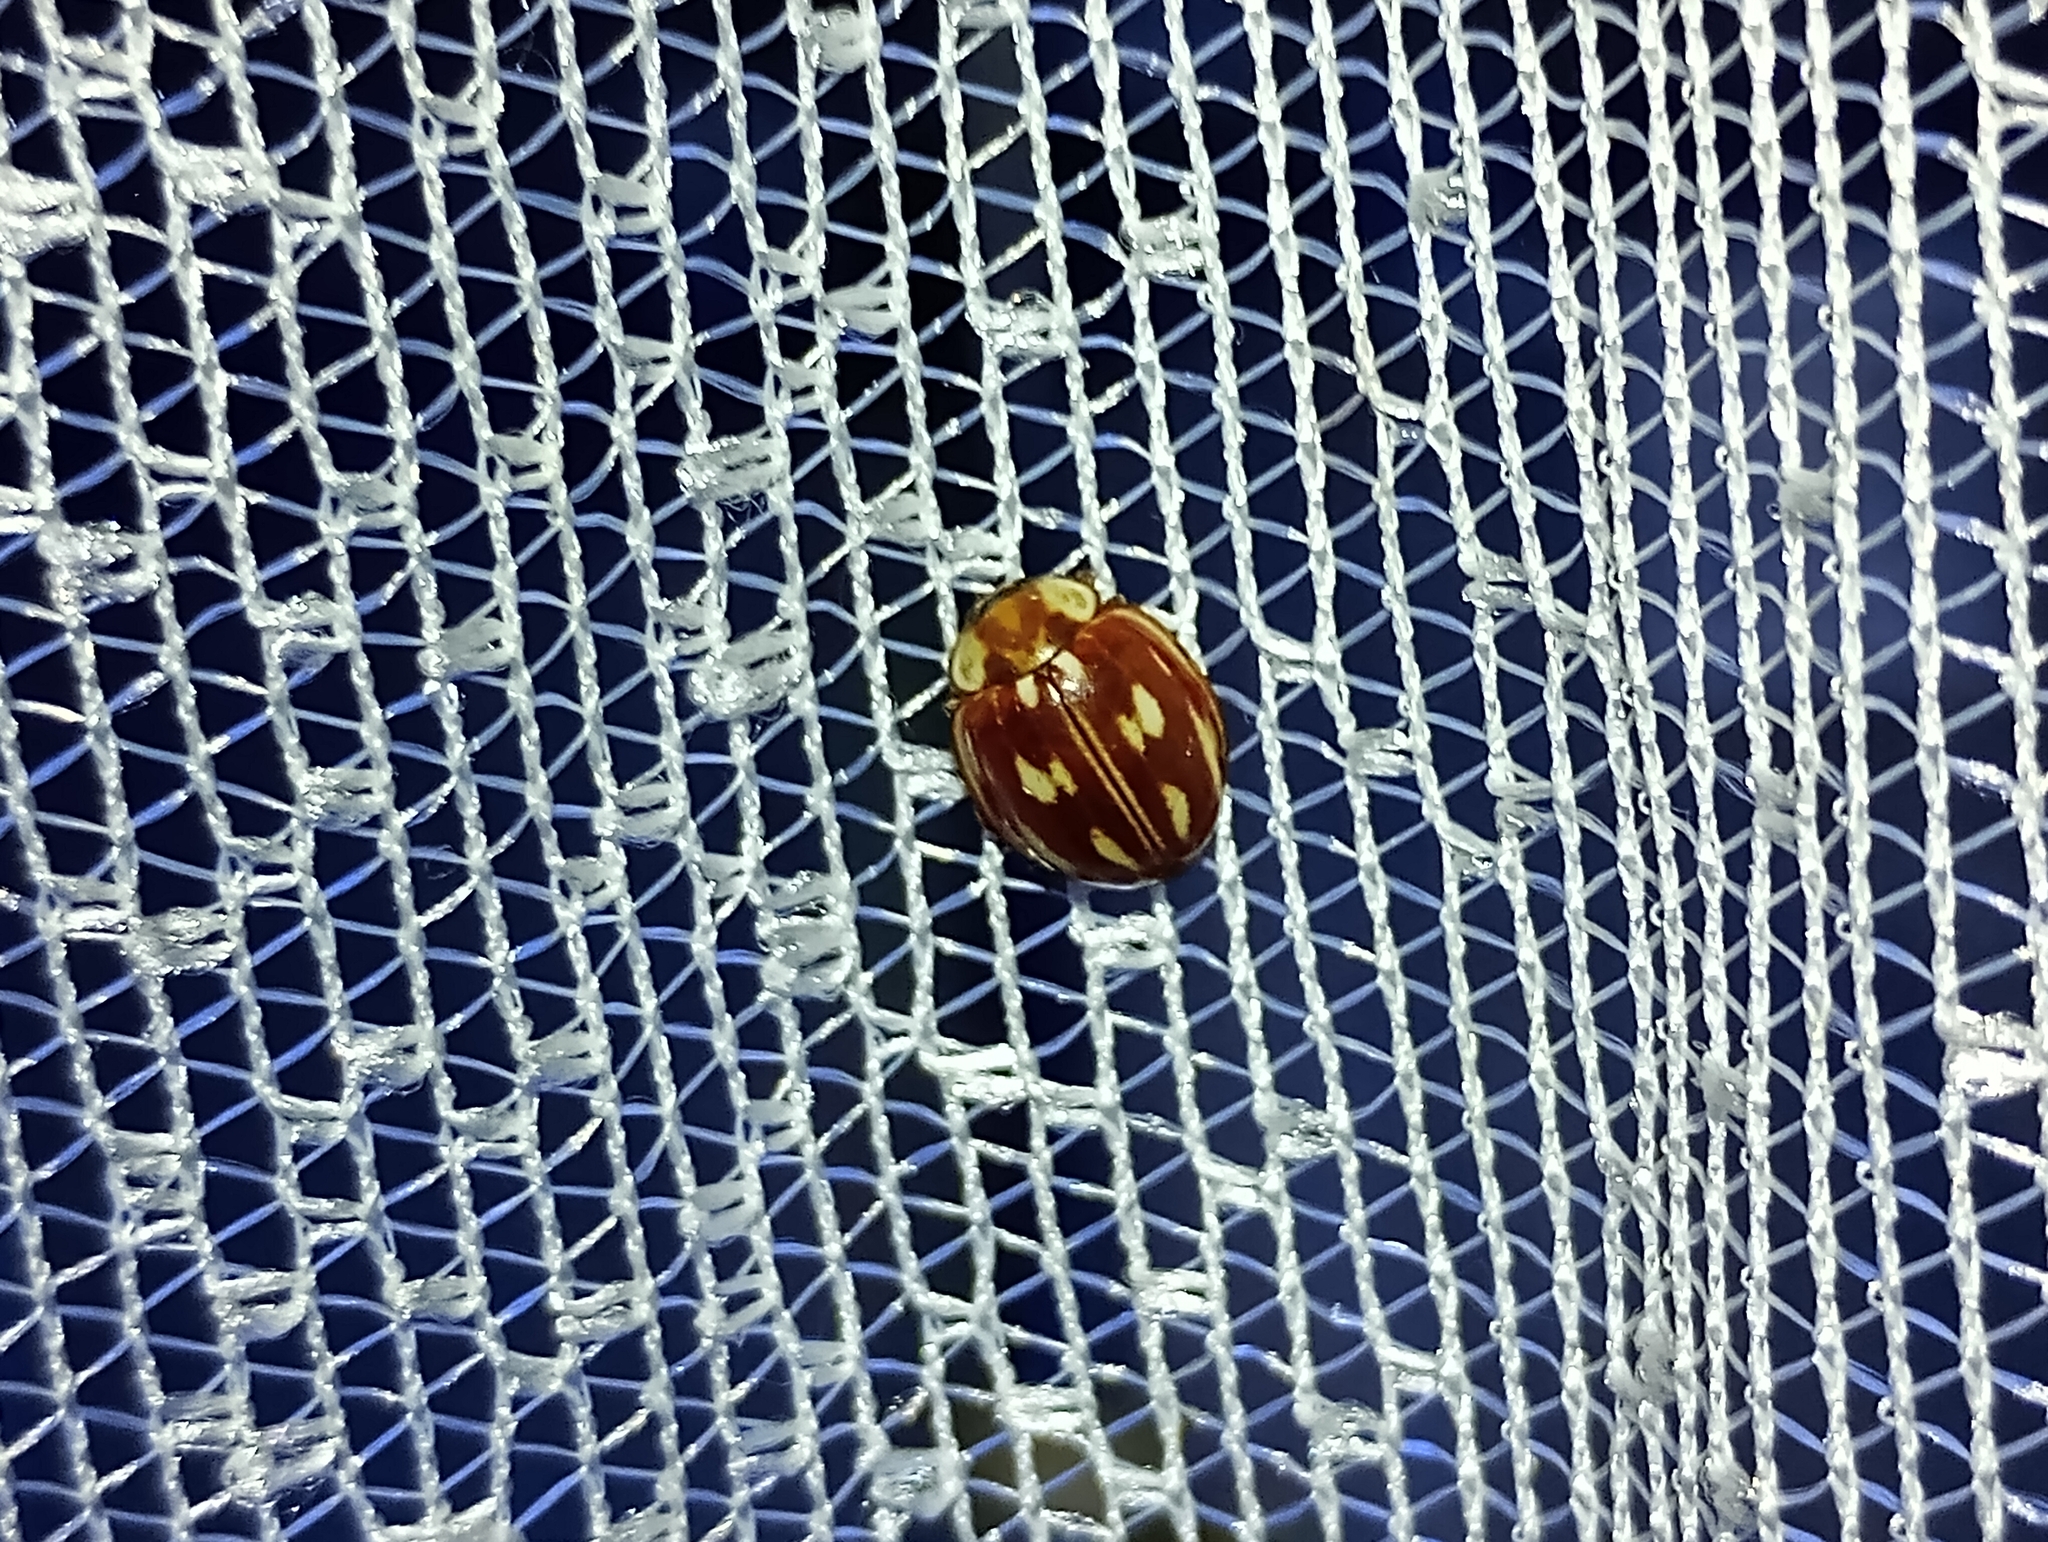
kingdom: Animalia
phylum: Arthropoda
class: Insecta
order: Coleoptera
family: Coccinellidae
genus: Myzia
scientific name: Myzia oblongoguttata
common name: Striped ladybird
